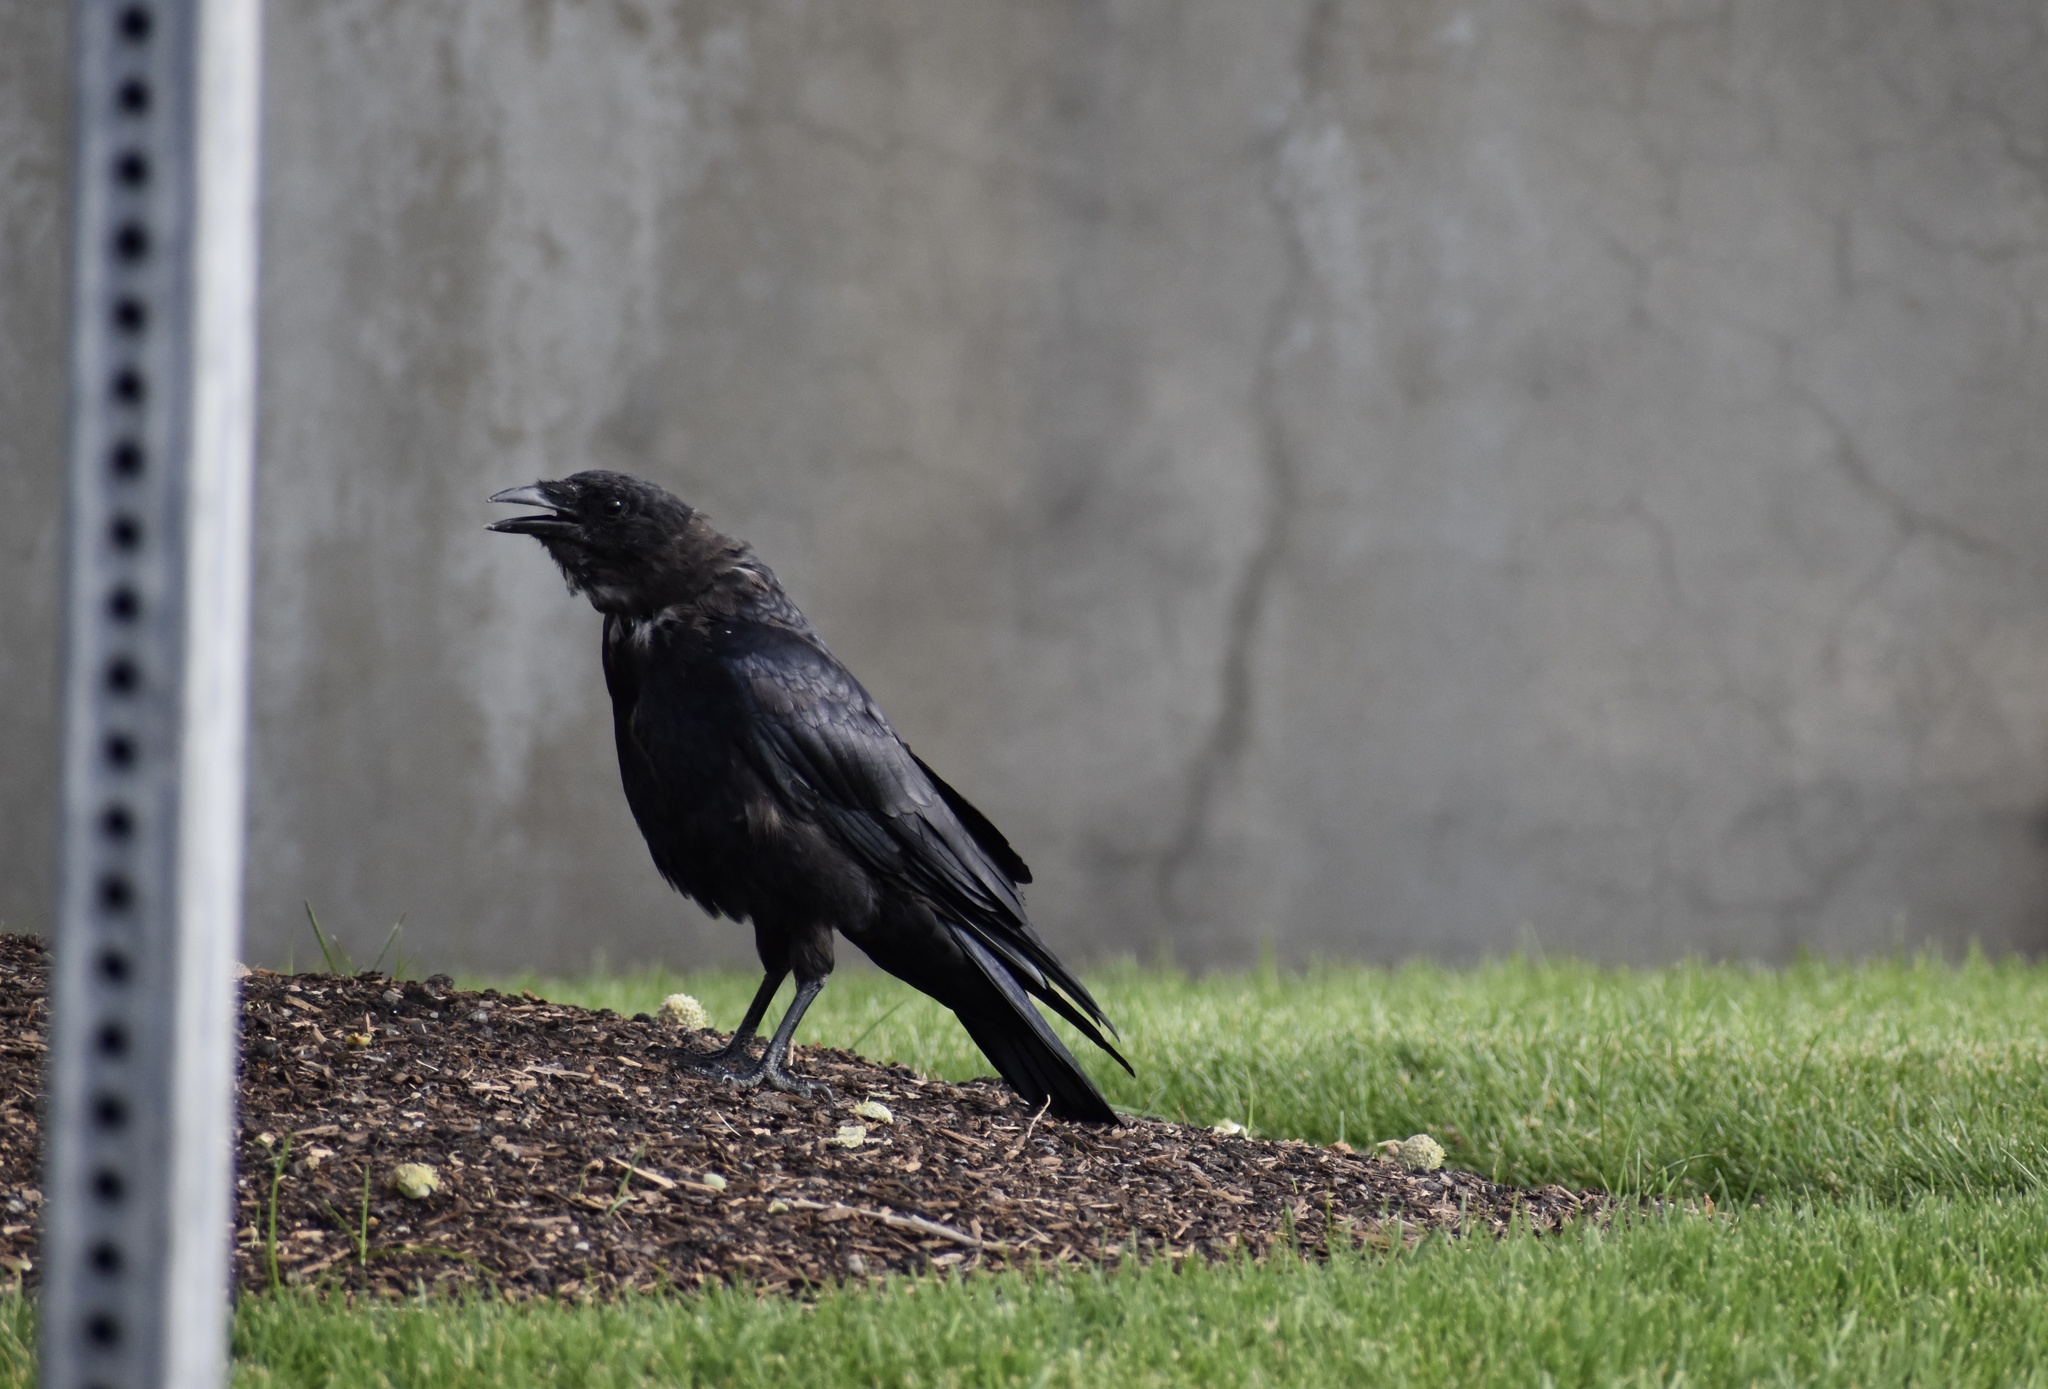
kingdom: Animalia
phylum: Chordata
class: Aves
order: Passeriformes
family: Corvidae
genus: Corvus
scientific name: Corvus brachyrhynchos
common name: American crow
